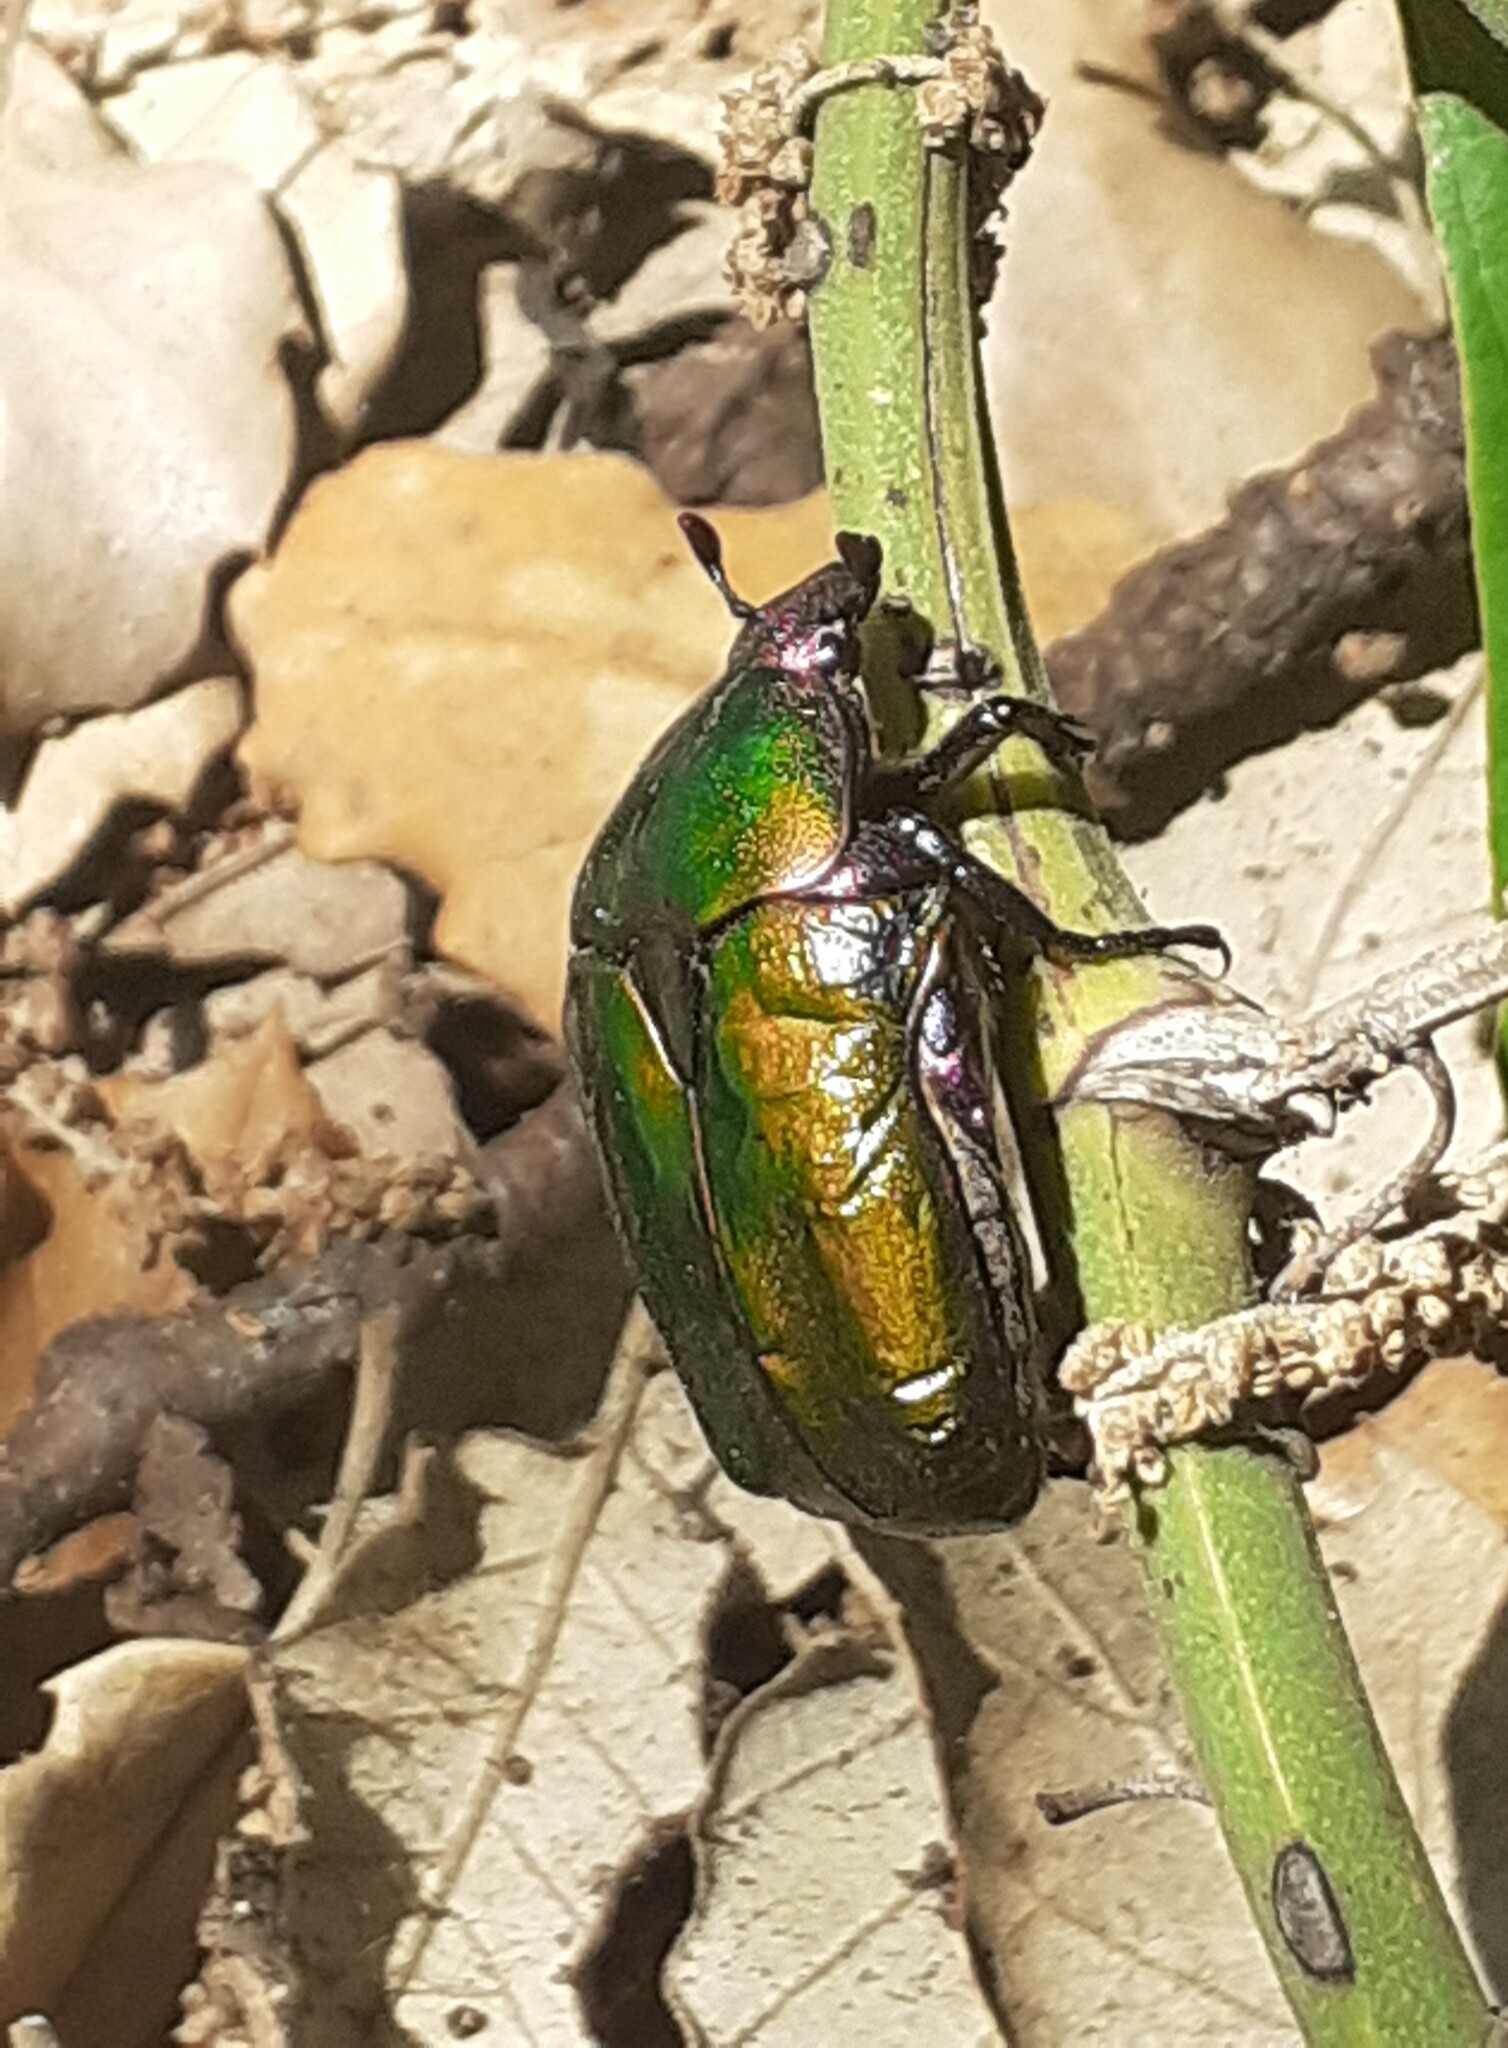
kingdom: Animalia
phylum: Arthropoda
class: Insecta
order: Coleoptera
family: Scarabaeidae
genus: Protaetia
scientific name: Protaetia cuprea
